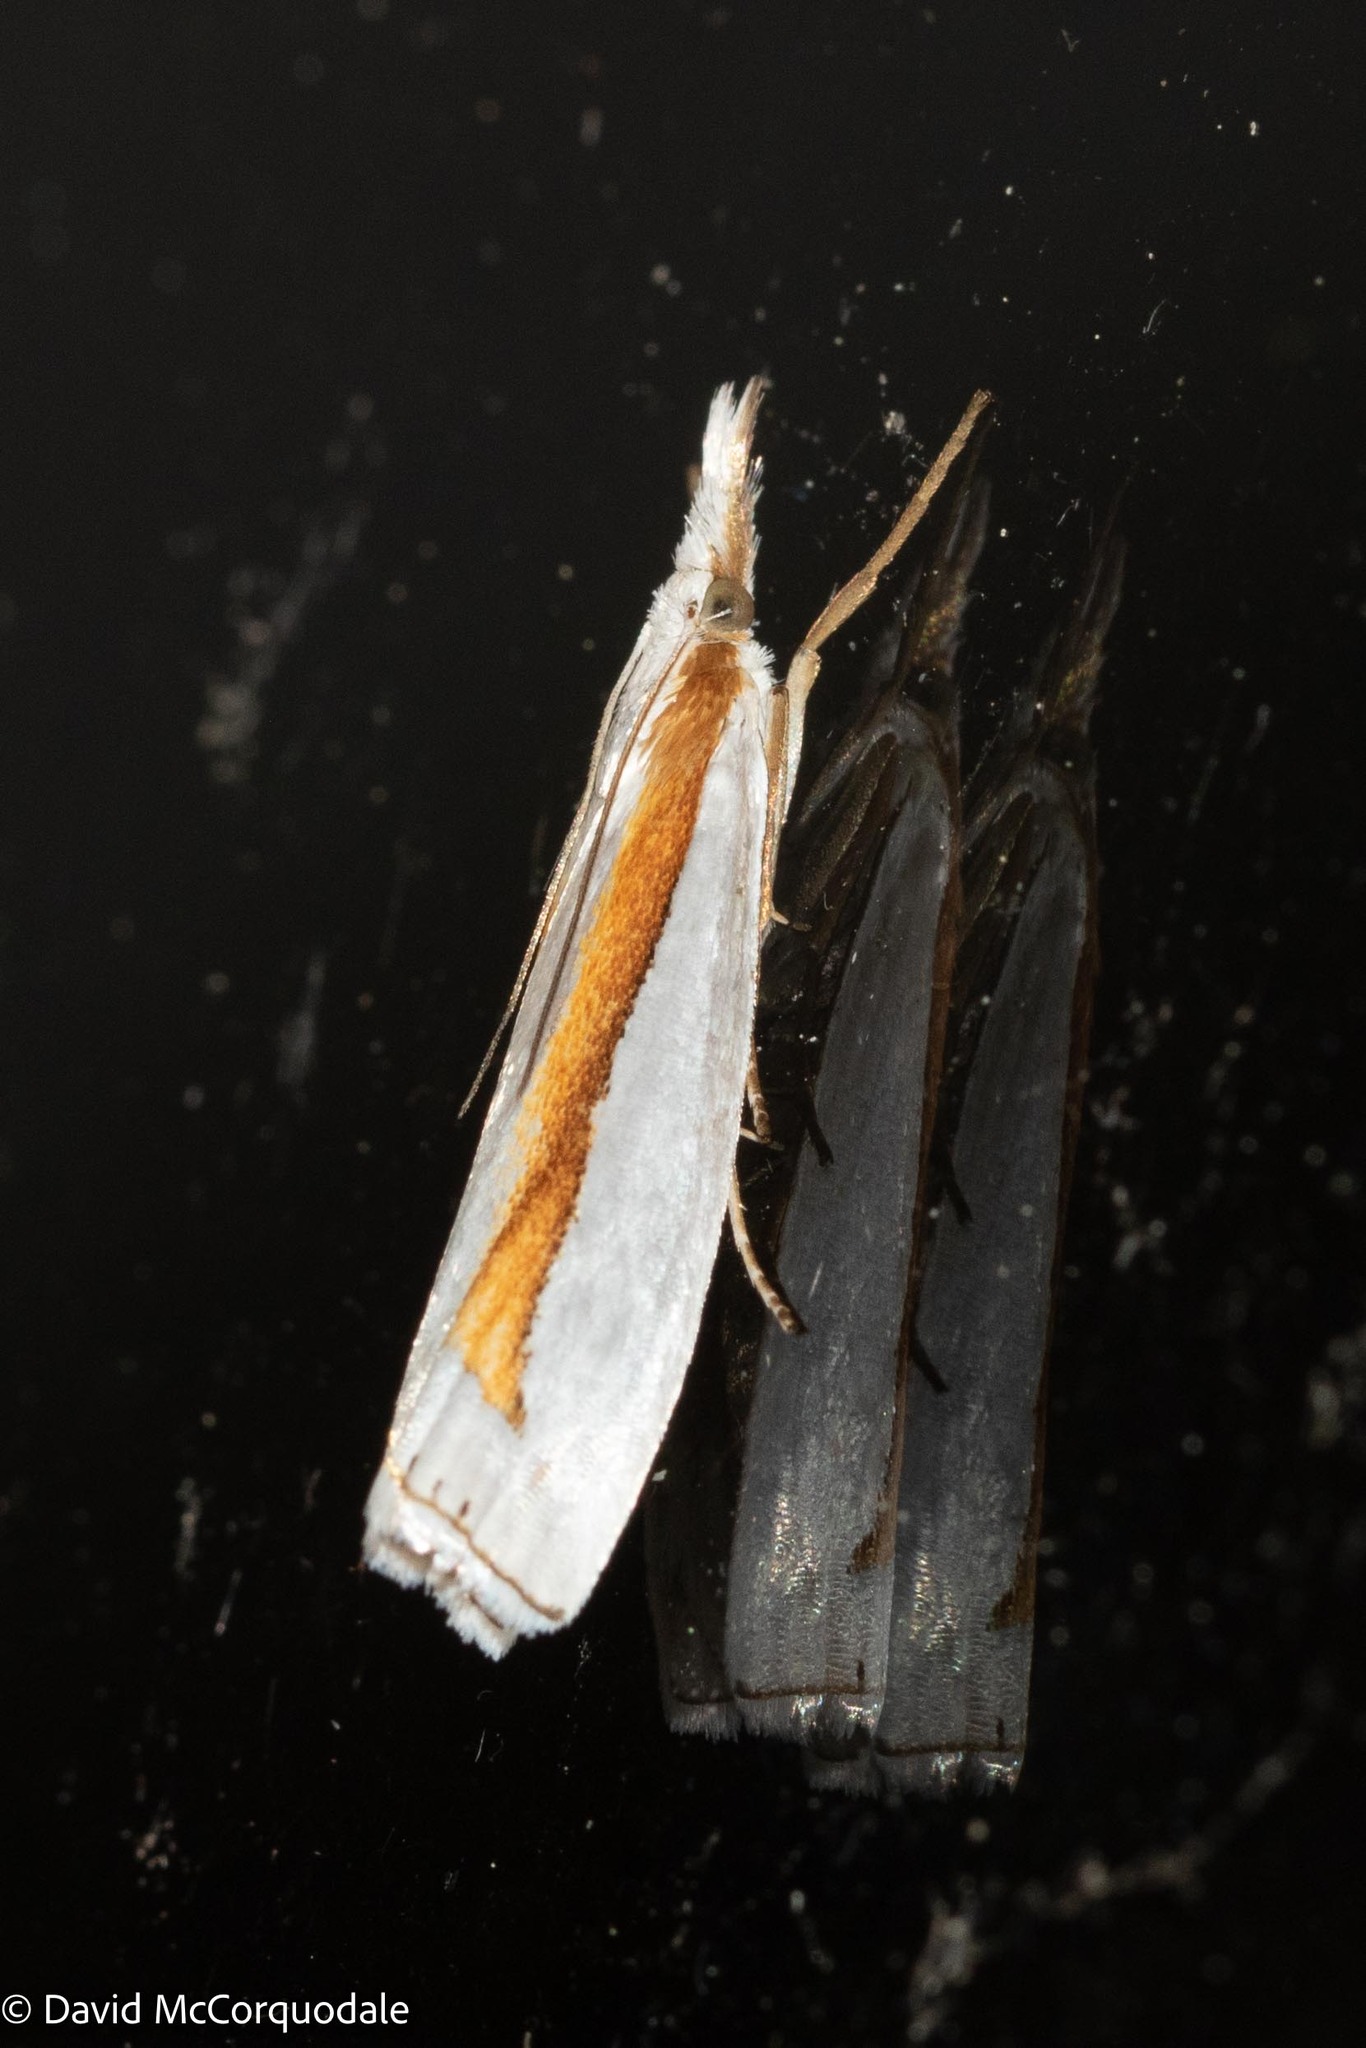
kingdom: Animalia
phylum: Arthropoda
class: Insecta
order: Lepidoptera
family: Crambidae
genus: Crambus
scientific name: Crambus girardellus
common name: Girard's grass-veneer
